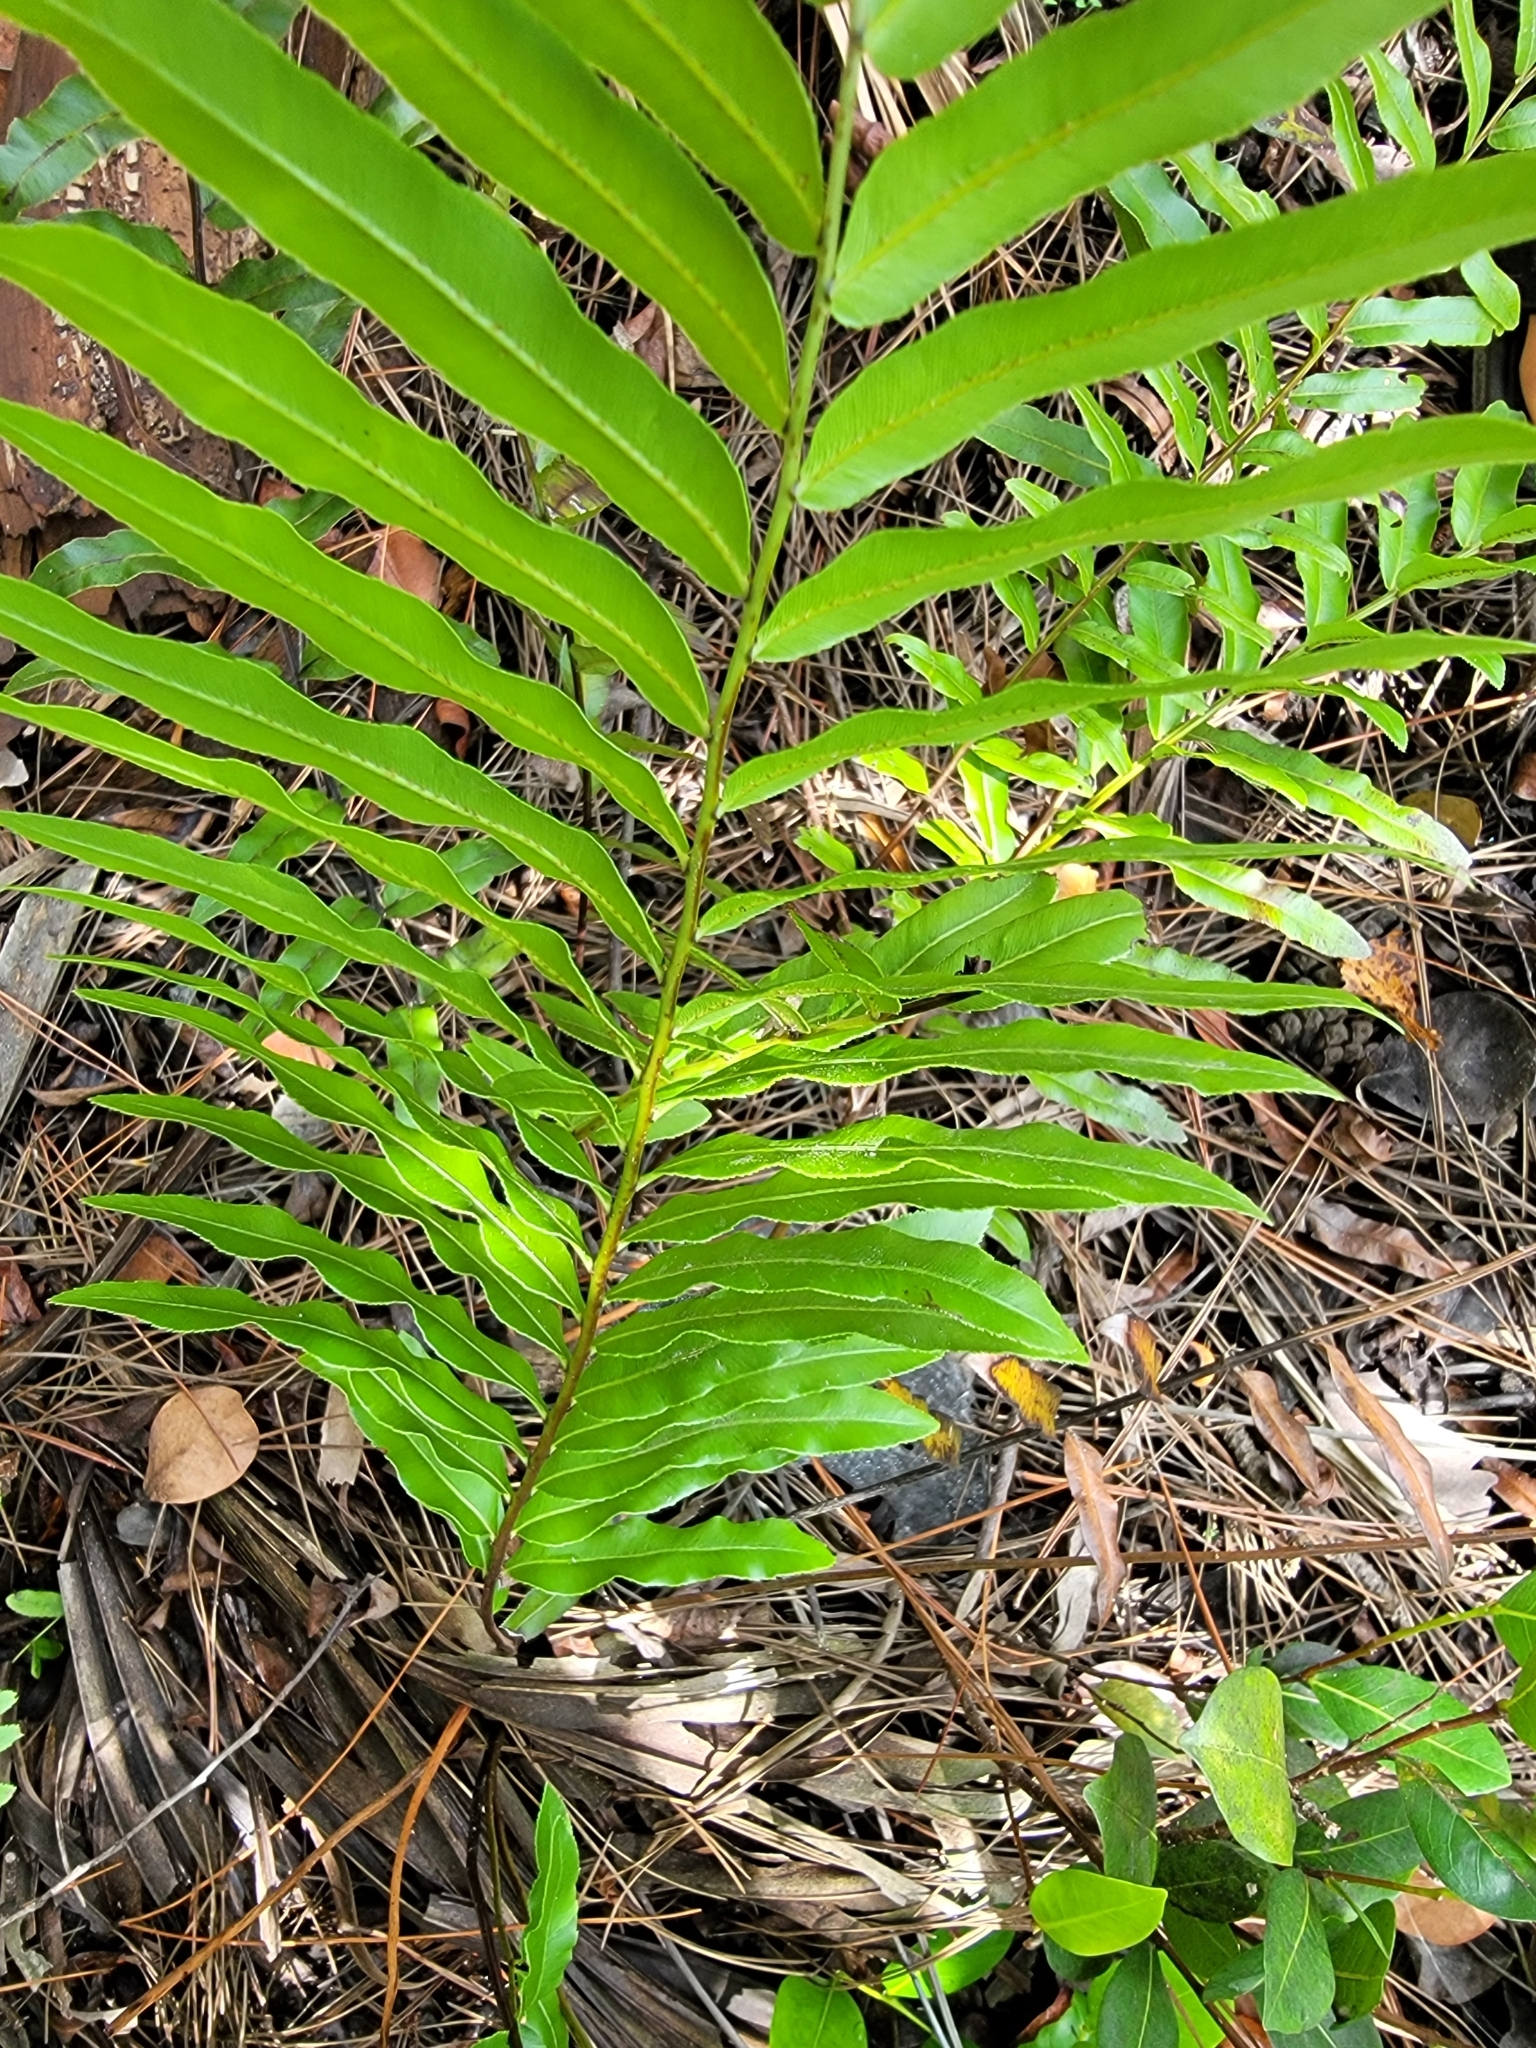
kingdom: Plantae
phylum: Tracheophyta
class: Polypodiopsida
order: Polypodiales
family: Blechnaceae
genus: Telmatoblechnum
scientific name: Telmatoblechnum serrulatum
